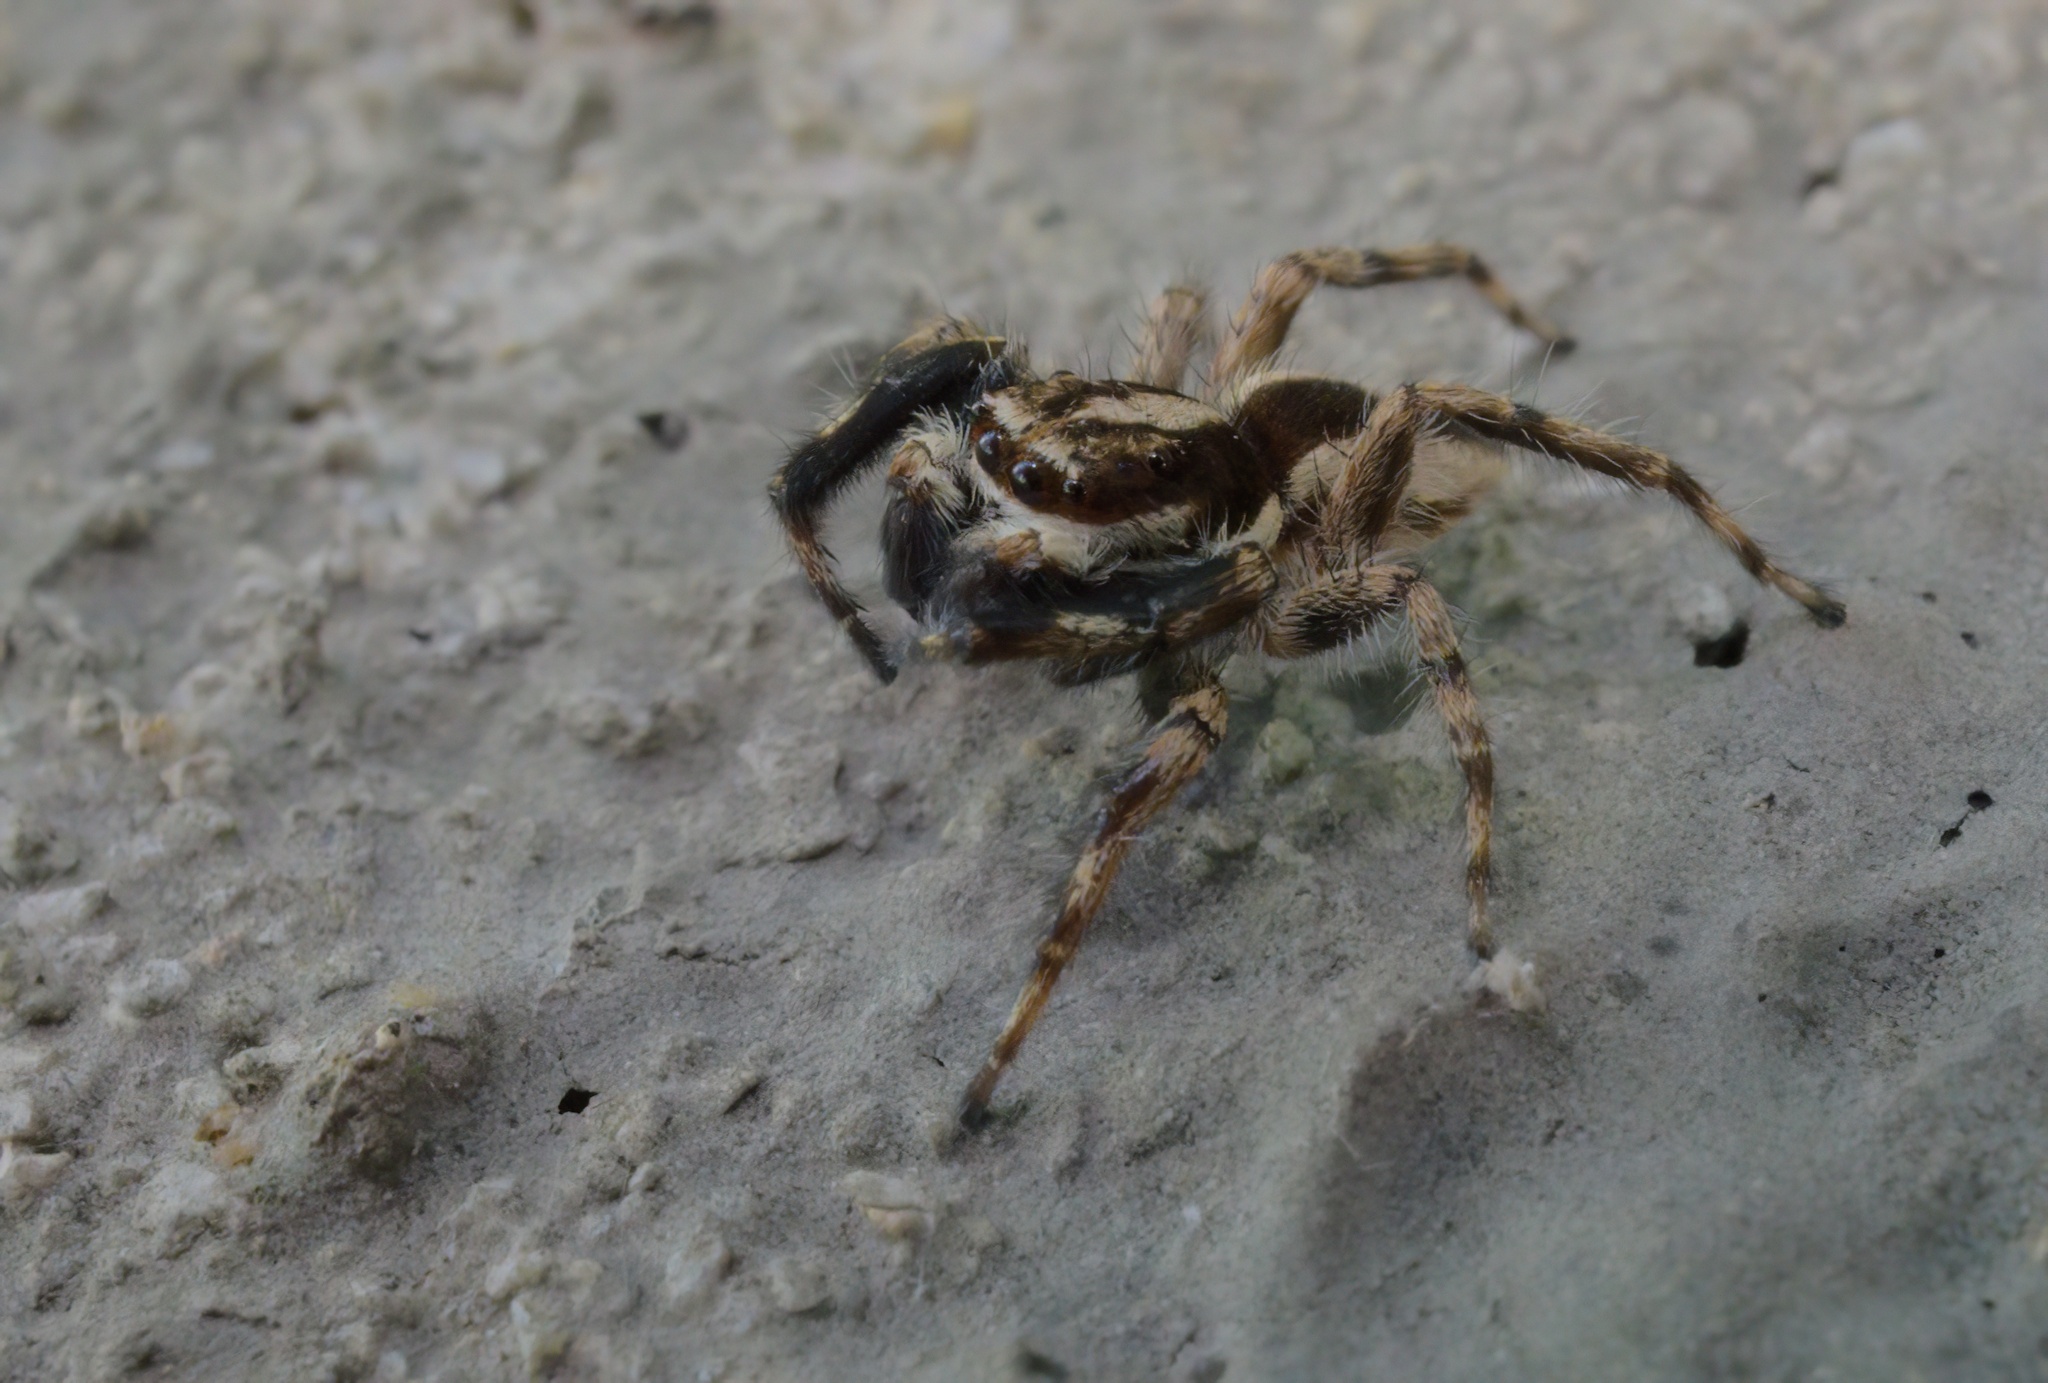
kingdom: Animalia
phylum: Arthropoda
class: Arachnida
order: Araneae
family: Salticidae
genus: Menemerus
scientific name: Menemerus bivittatus
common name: Gray wall jumper
